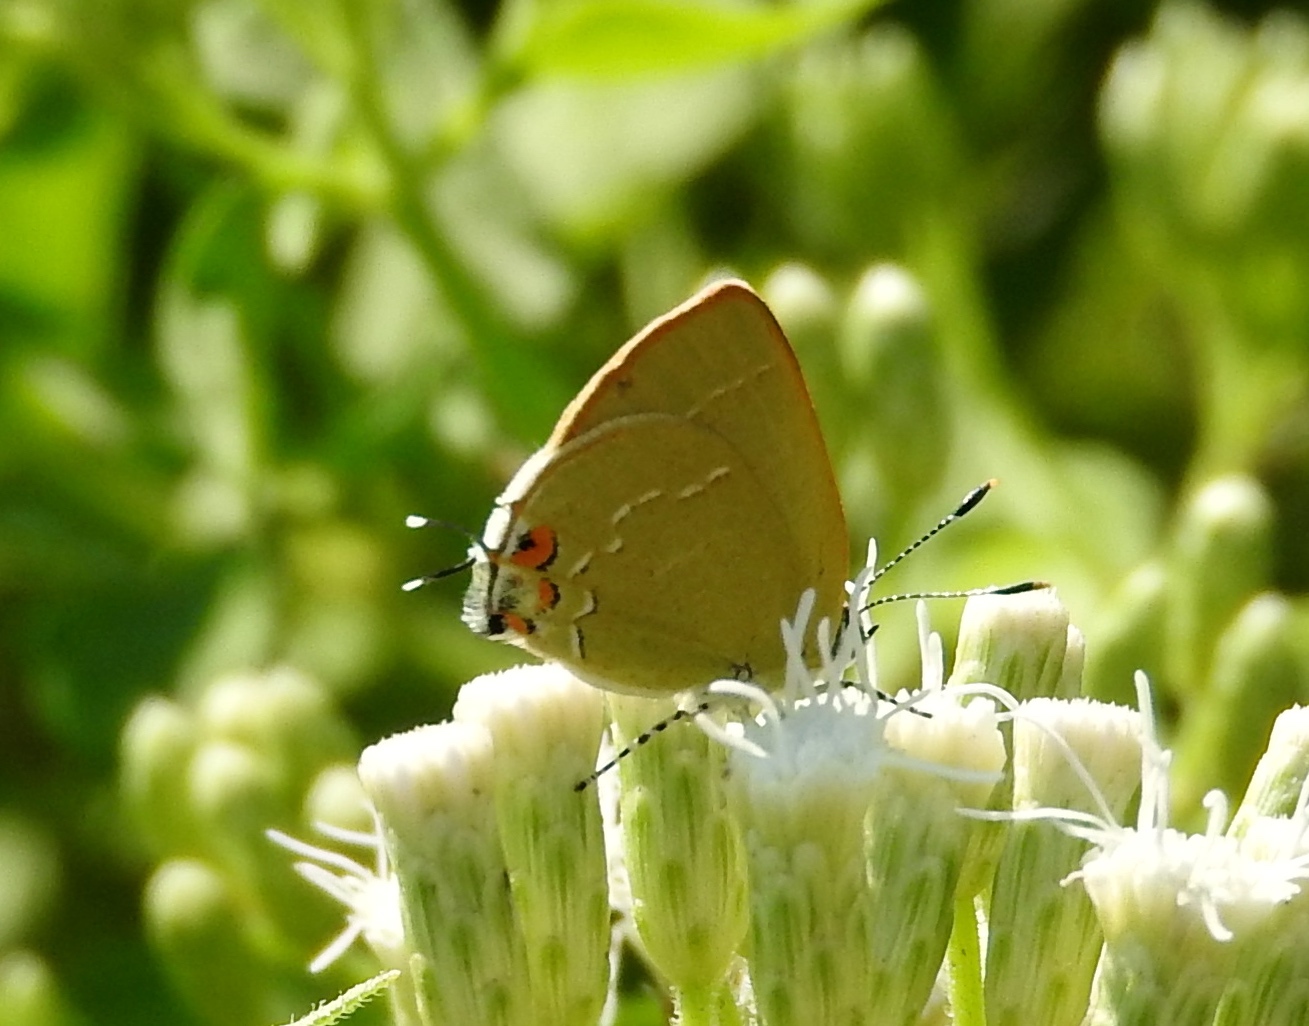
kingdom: Animalia
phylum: Arthropoda
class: Insecta
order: Lepidoptera
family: Lycaenidae
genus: Erora
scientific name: Erora carla
